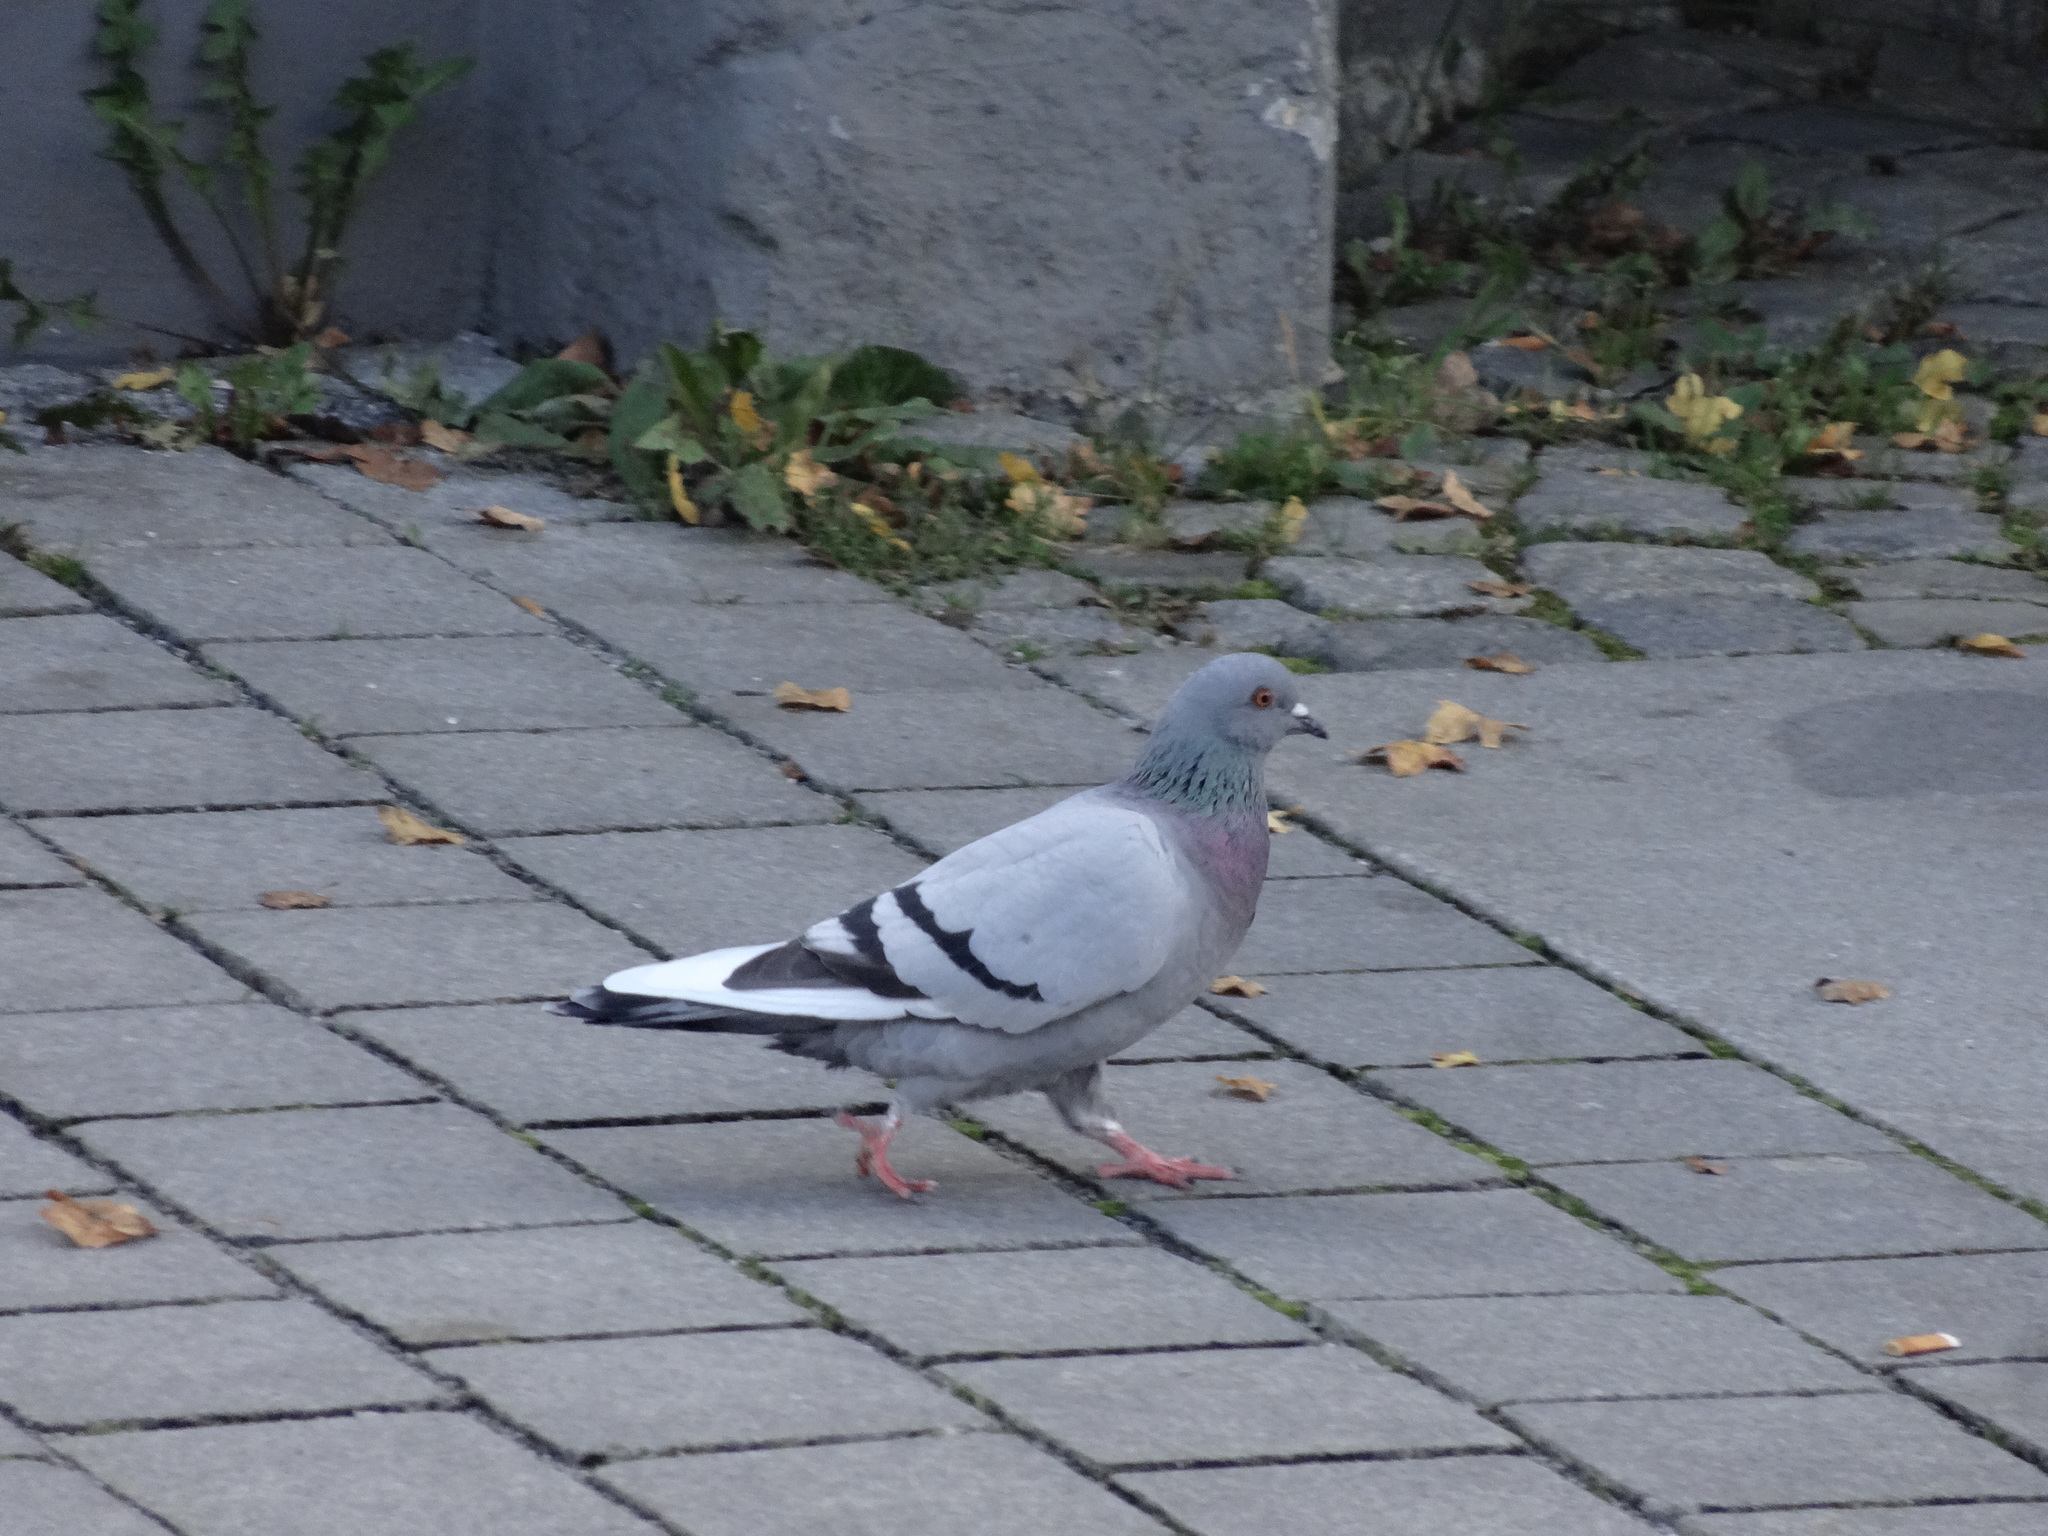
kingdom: Animalia
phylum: Chordata
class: Aves
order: Columbiformes
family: Columbidae
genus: Columba
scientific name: Columba livia
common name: Rock pigeon
